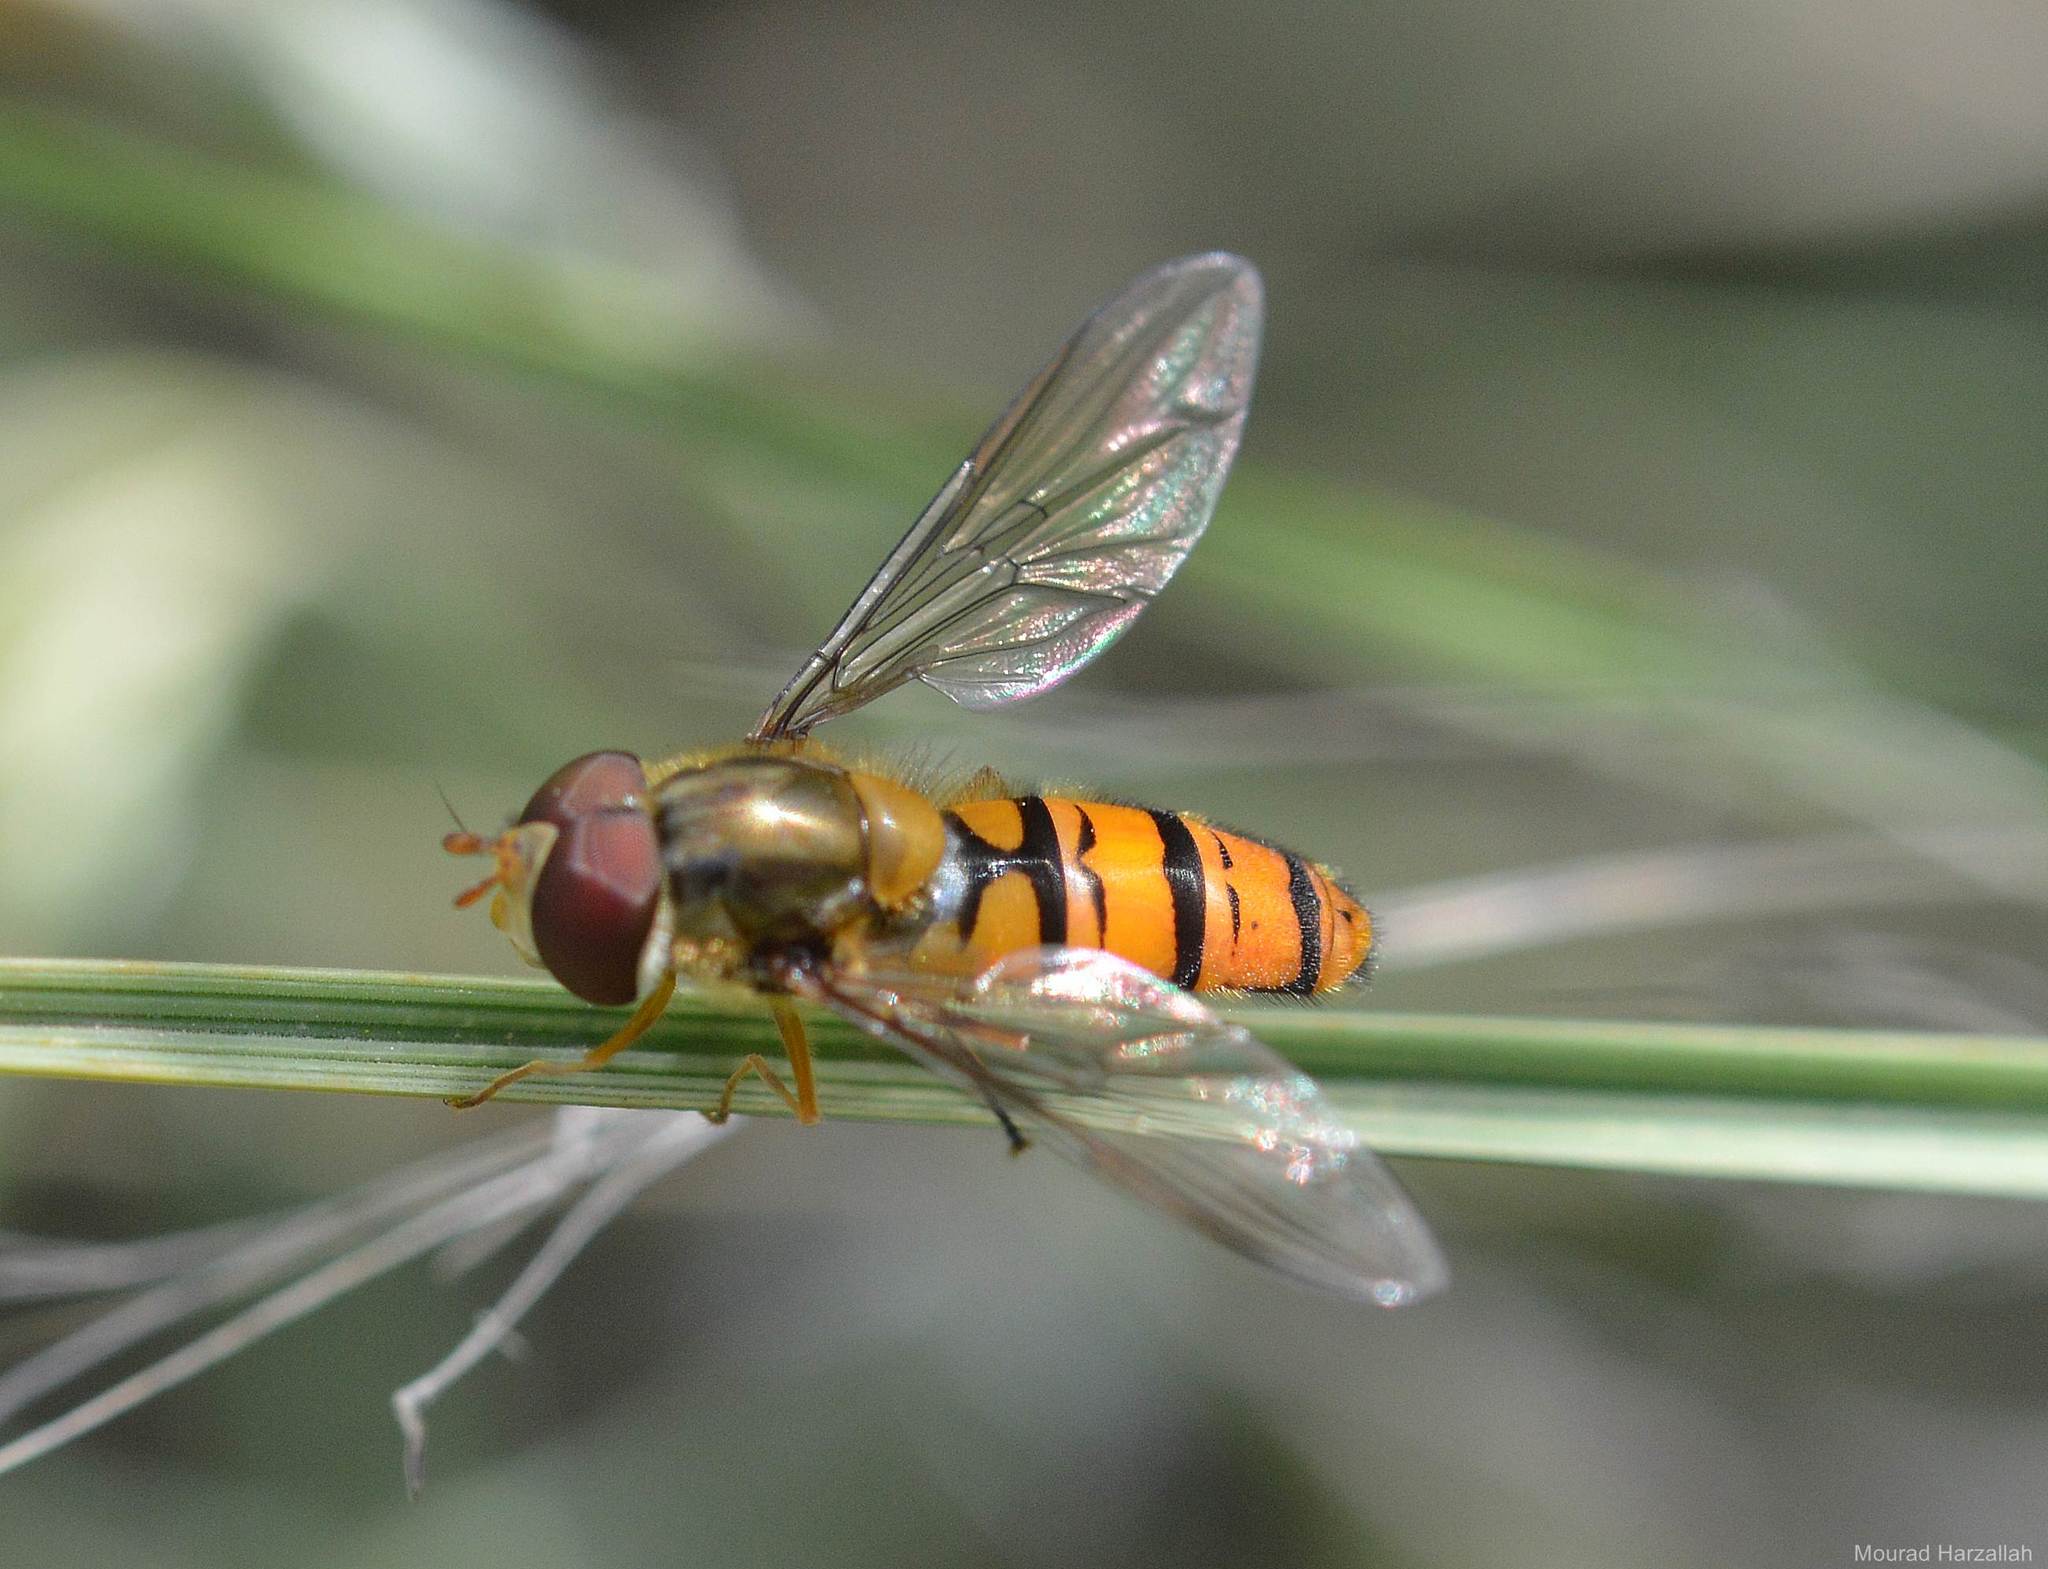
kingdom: Animalia
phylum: Arthropoda
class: Insecta
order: Diptera
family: Syrphidae
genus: Episyrphus
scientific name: Episyrphus balteatus
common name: Marmalade hoverfly
